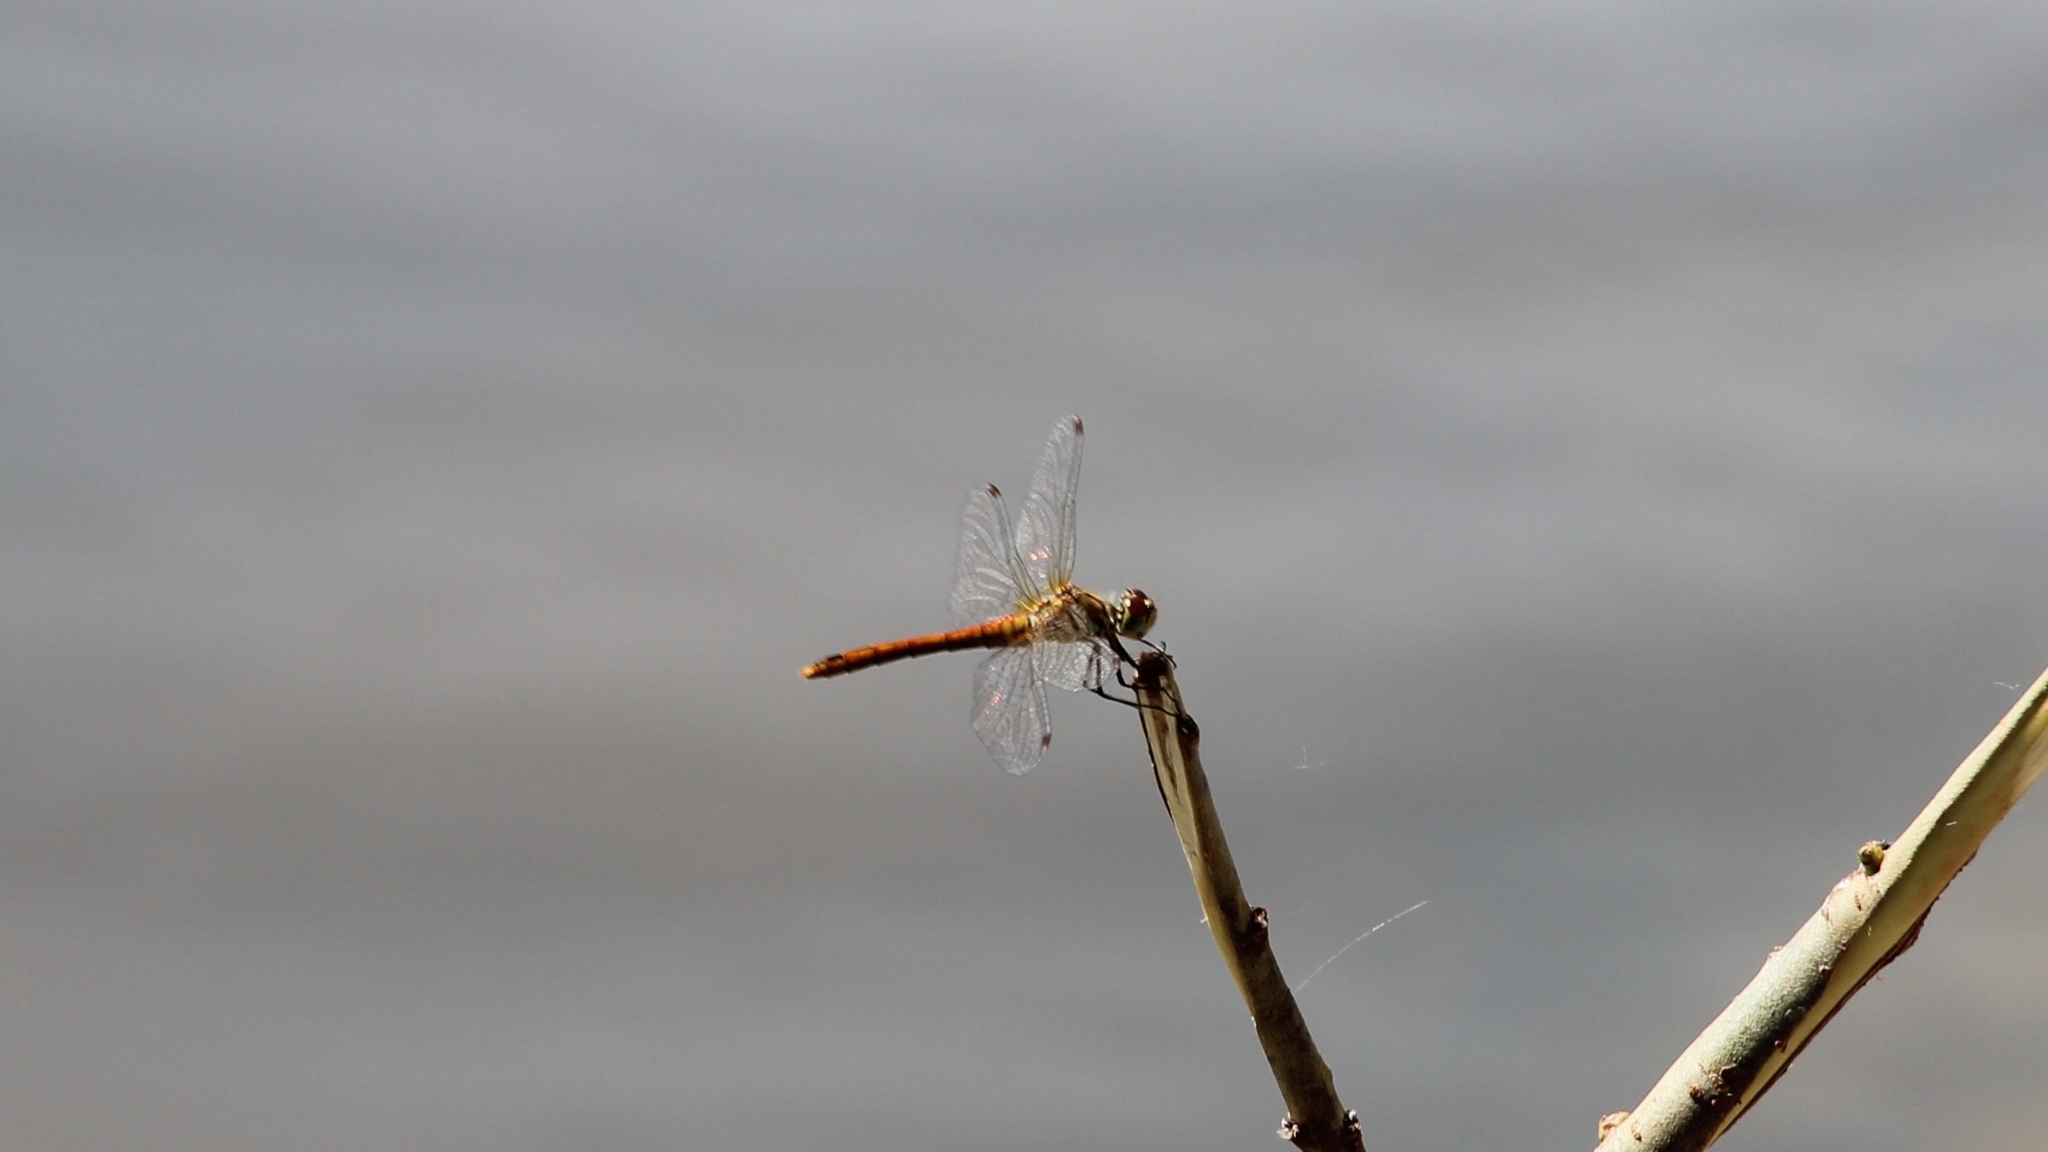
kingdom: Animalia
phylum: Arthropoda
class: Insecta
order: Odonata
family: Libellulidae
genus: Sympetrum
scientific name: Sympetrum sanguineum
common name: Ruddy darter
